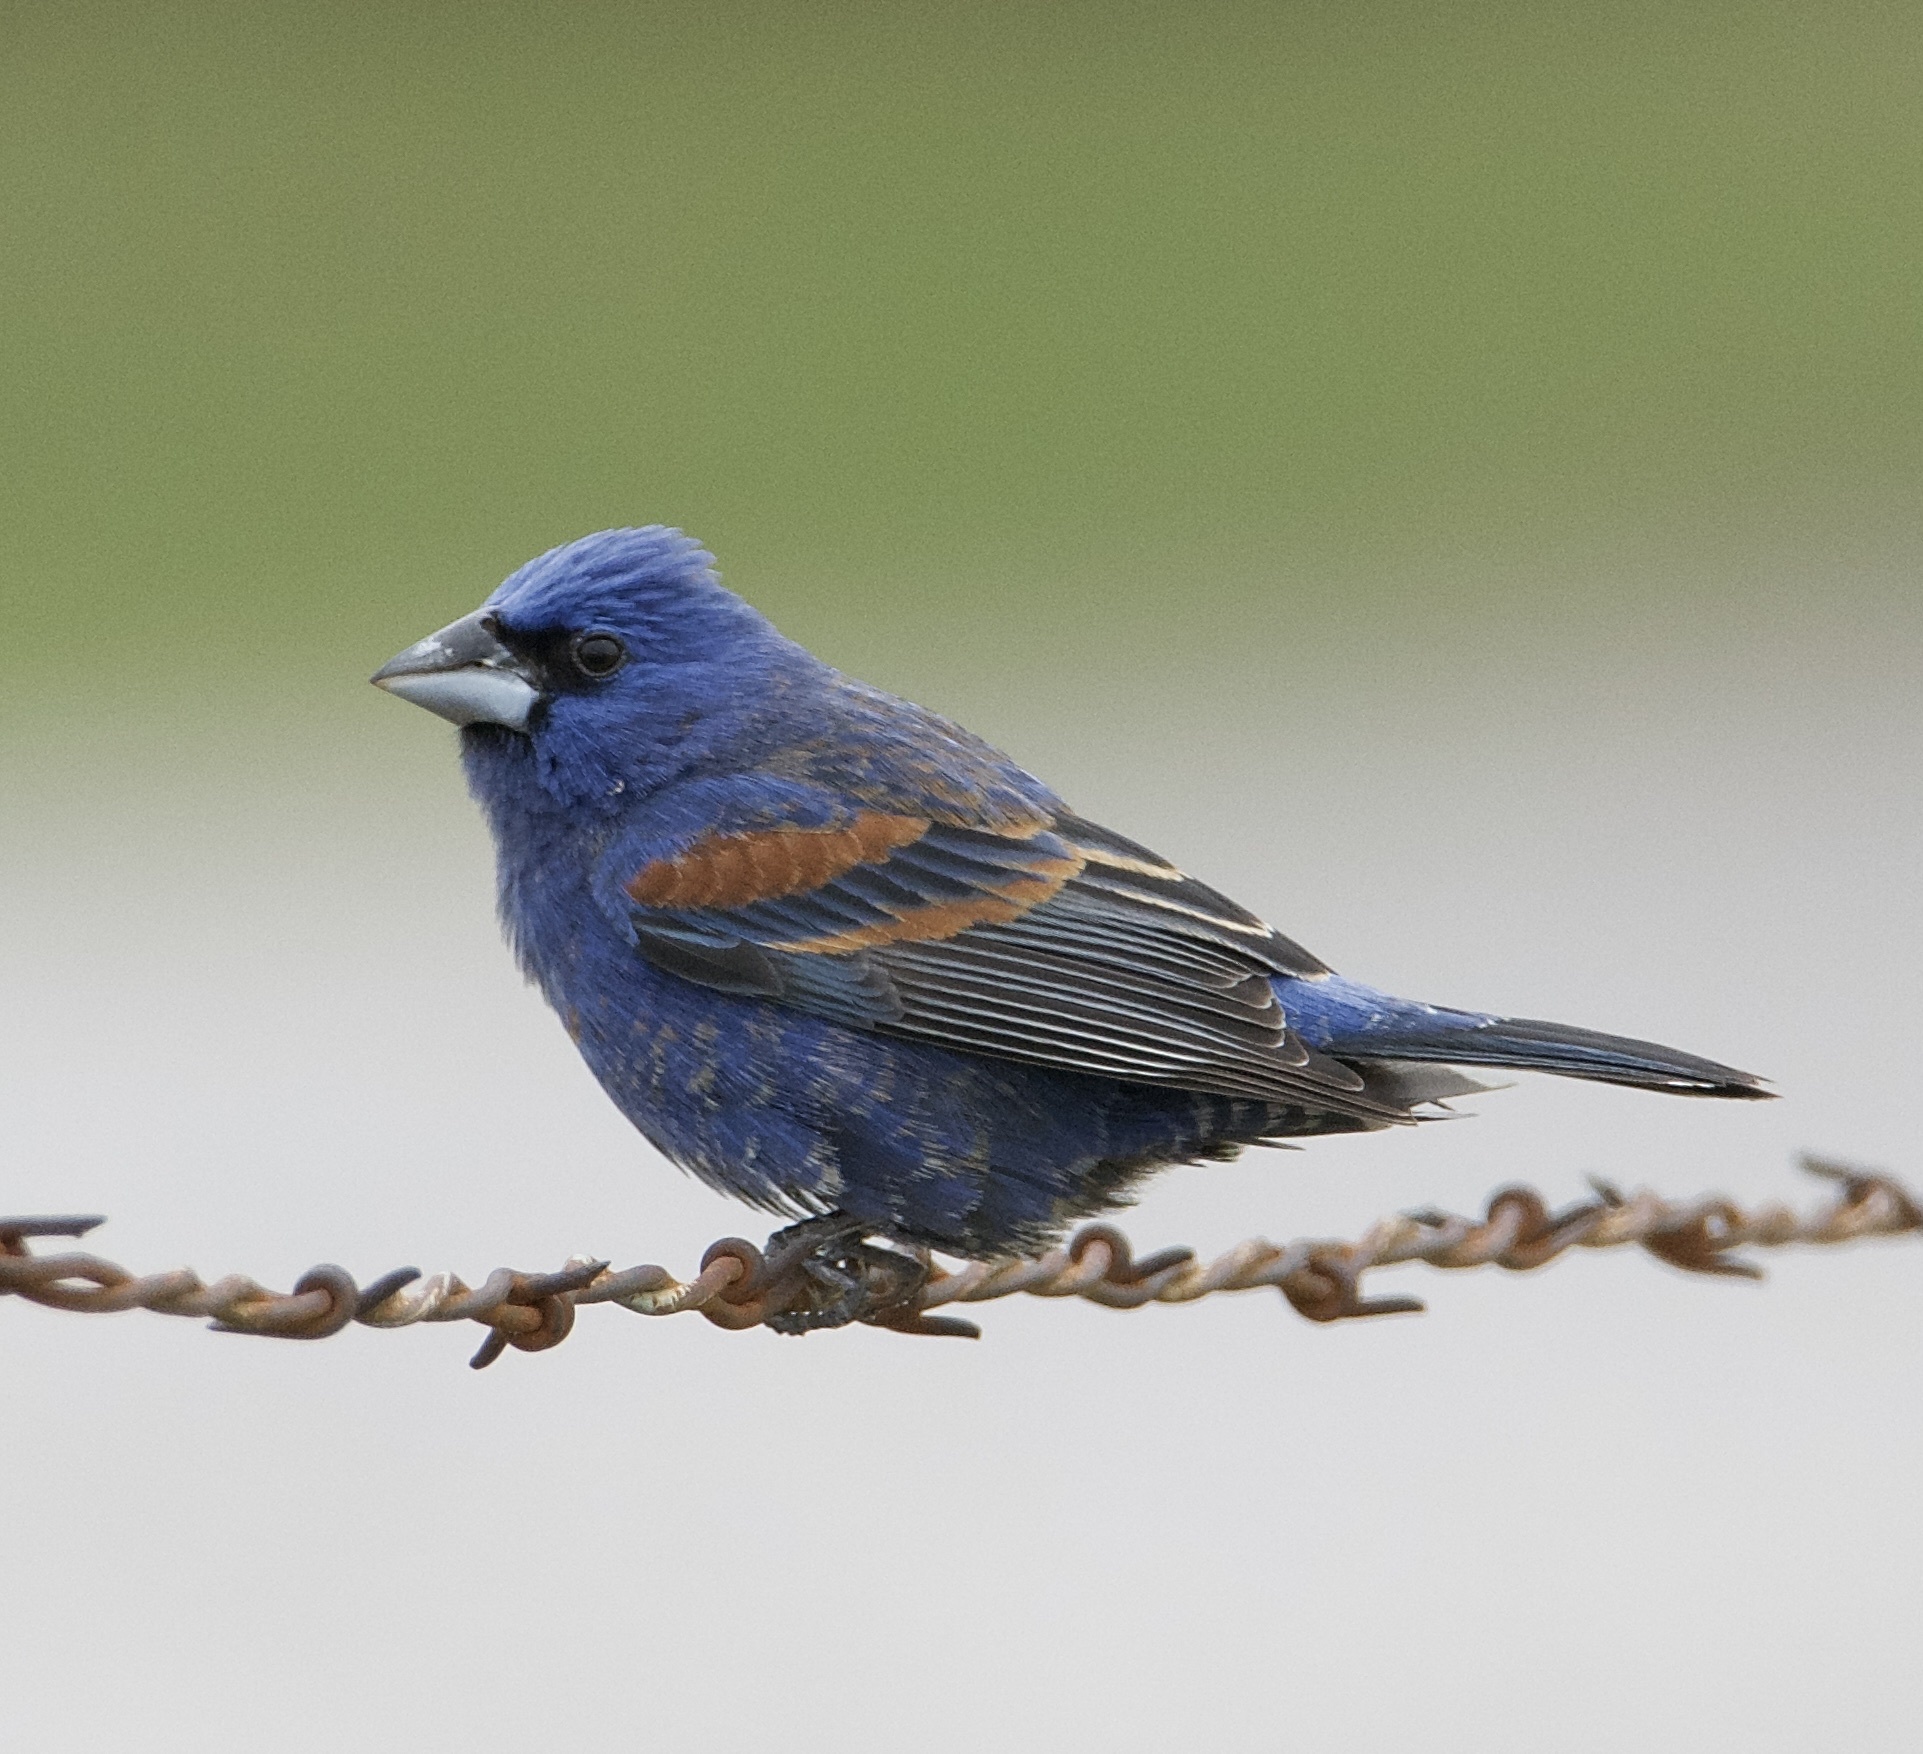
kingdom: Animalia
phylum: Chordata
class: Aves
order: Passeriformes
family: Cardinalidae
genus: Passerina
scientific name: Passerina caerulea
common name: Blue grosbeak
